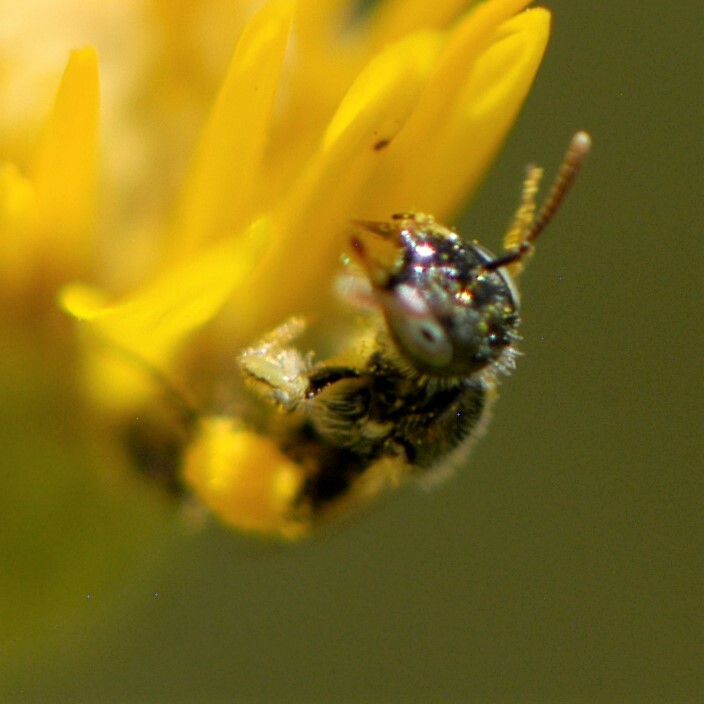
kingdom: Animalia
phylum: Arthropoda
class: Insecta
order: Hymenoptera
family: Andrenidae
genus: Perdita
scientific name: Perdita
